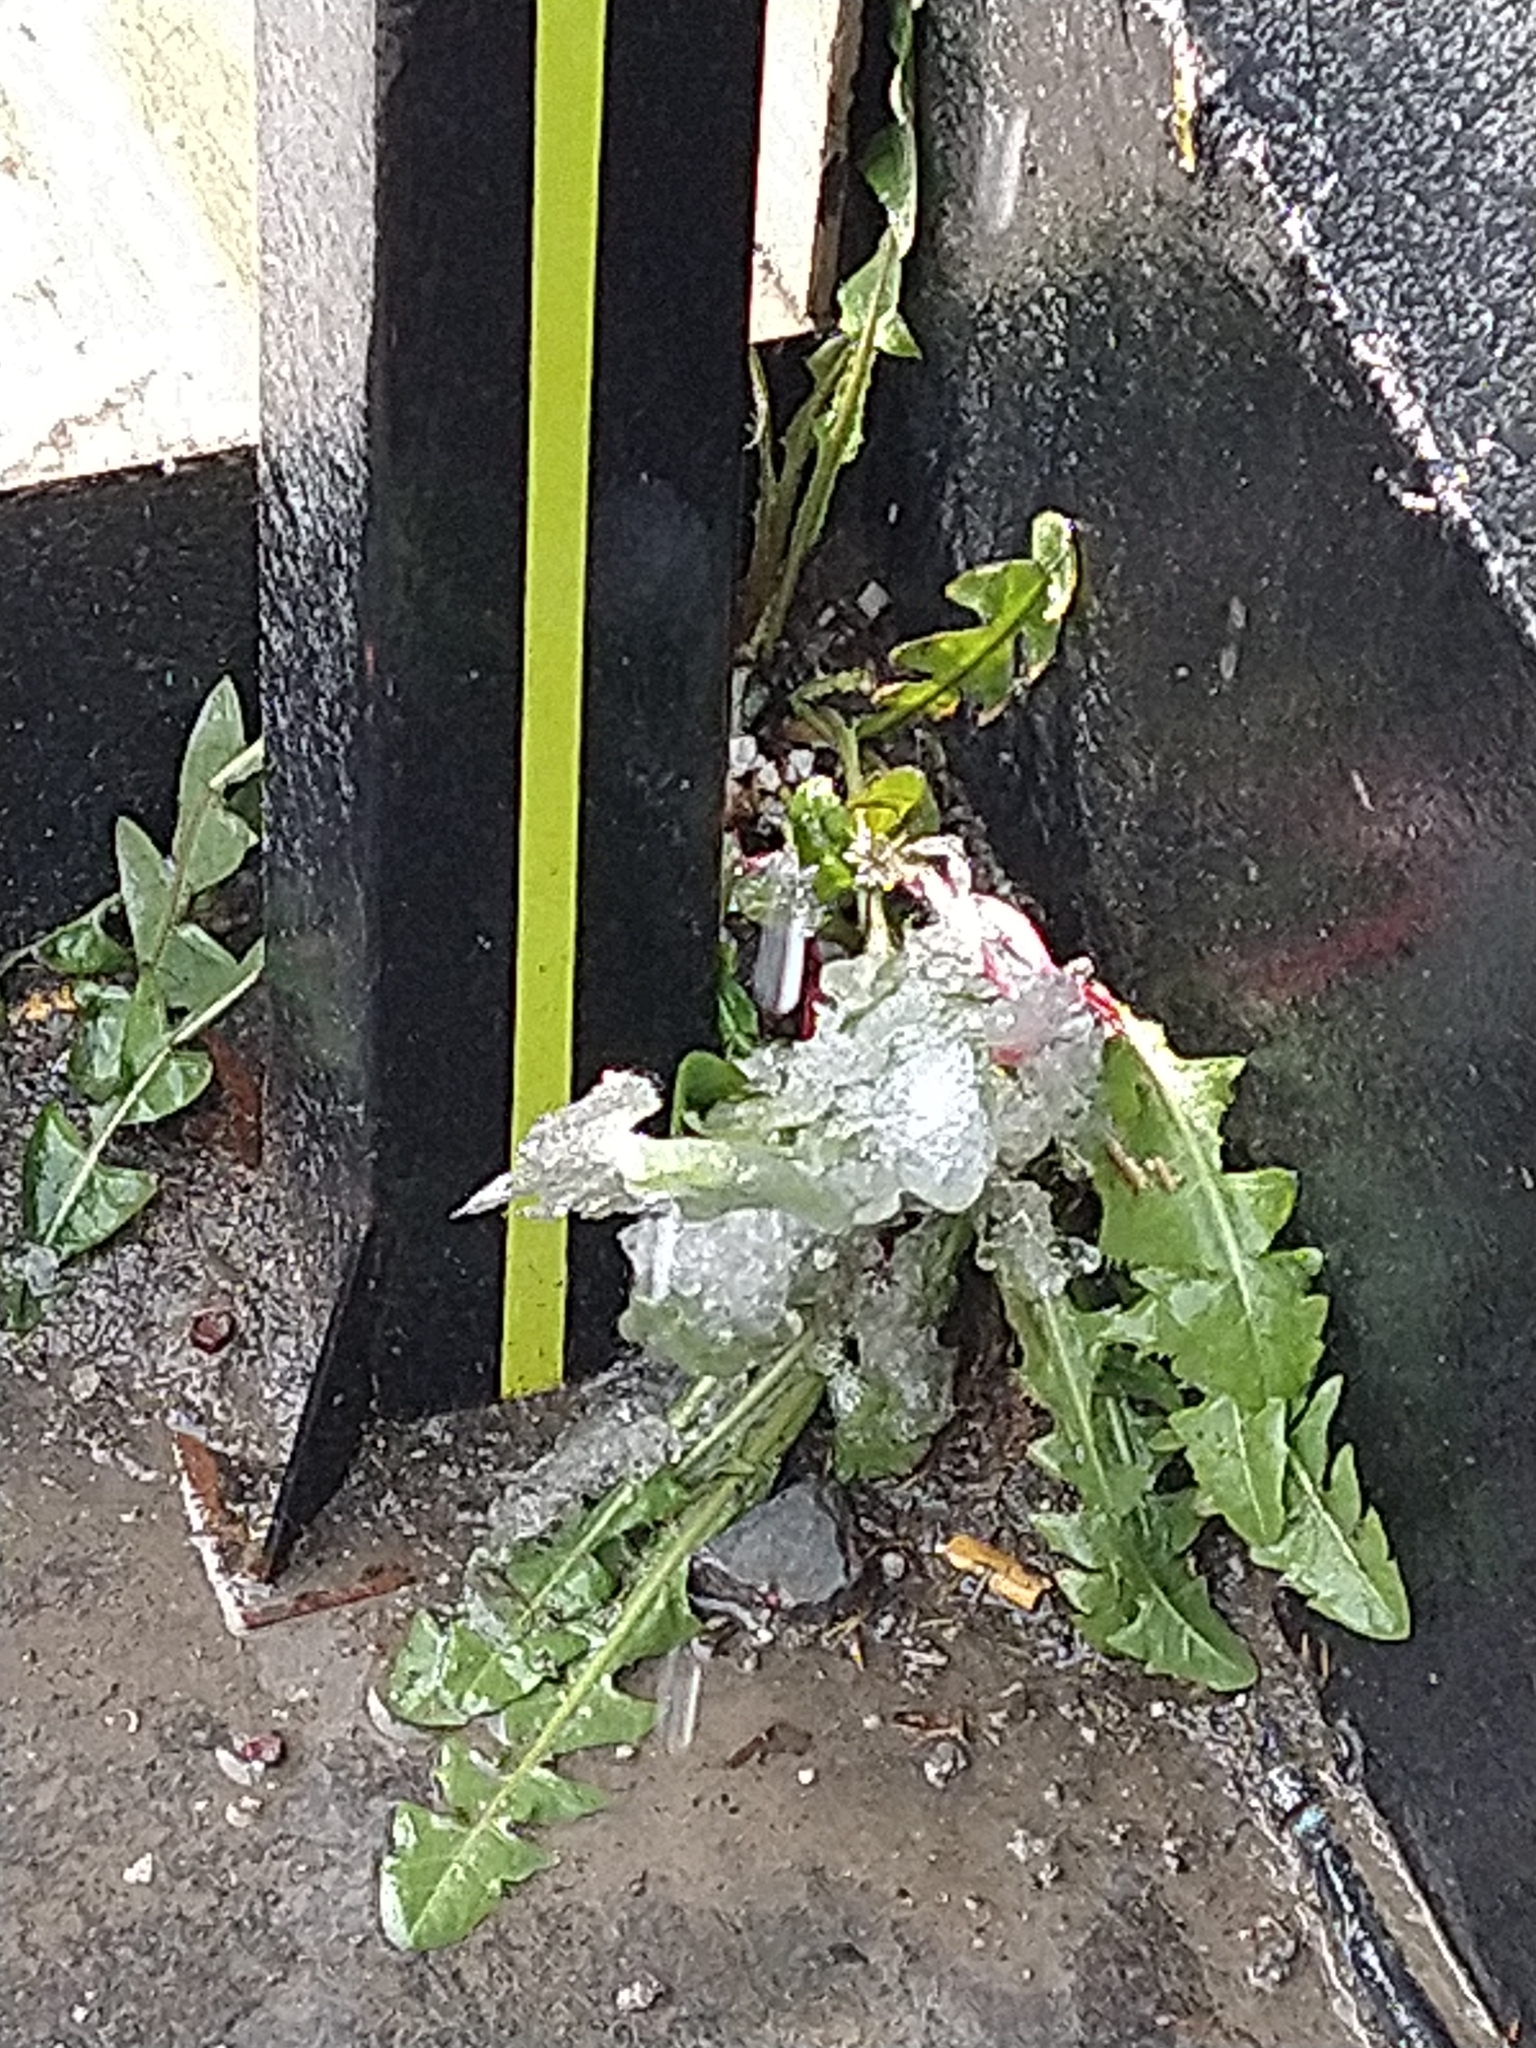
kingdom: Plantae
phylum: Tracheophyta
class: Magnoliopsida
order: Asterales
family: Asteraceae
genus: Taraxacum
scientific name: Taraxacum officinale
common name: Common dandelion
